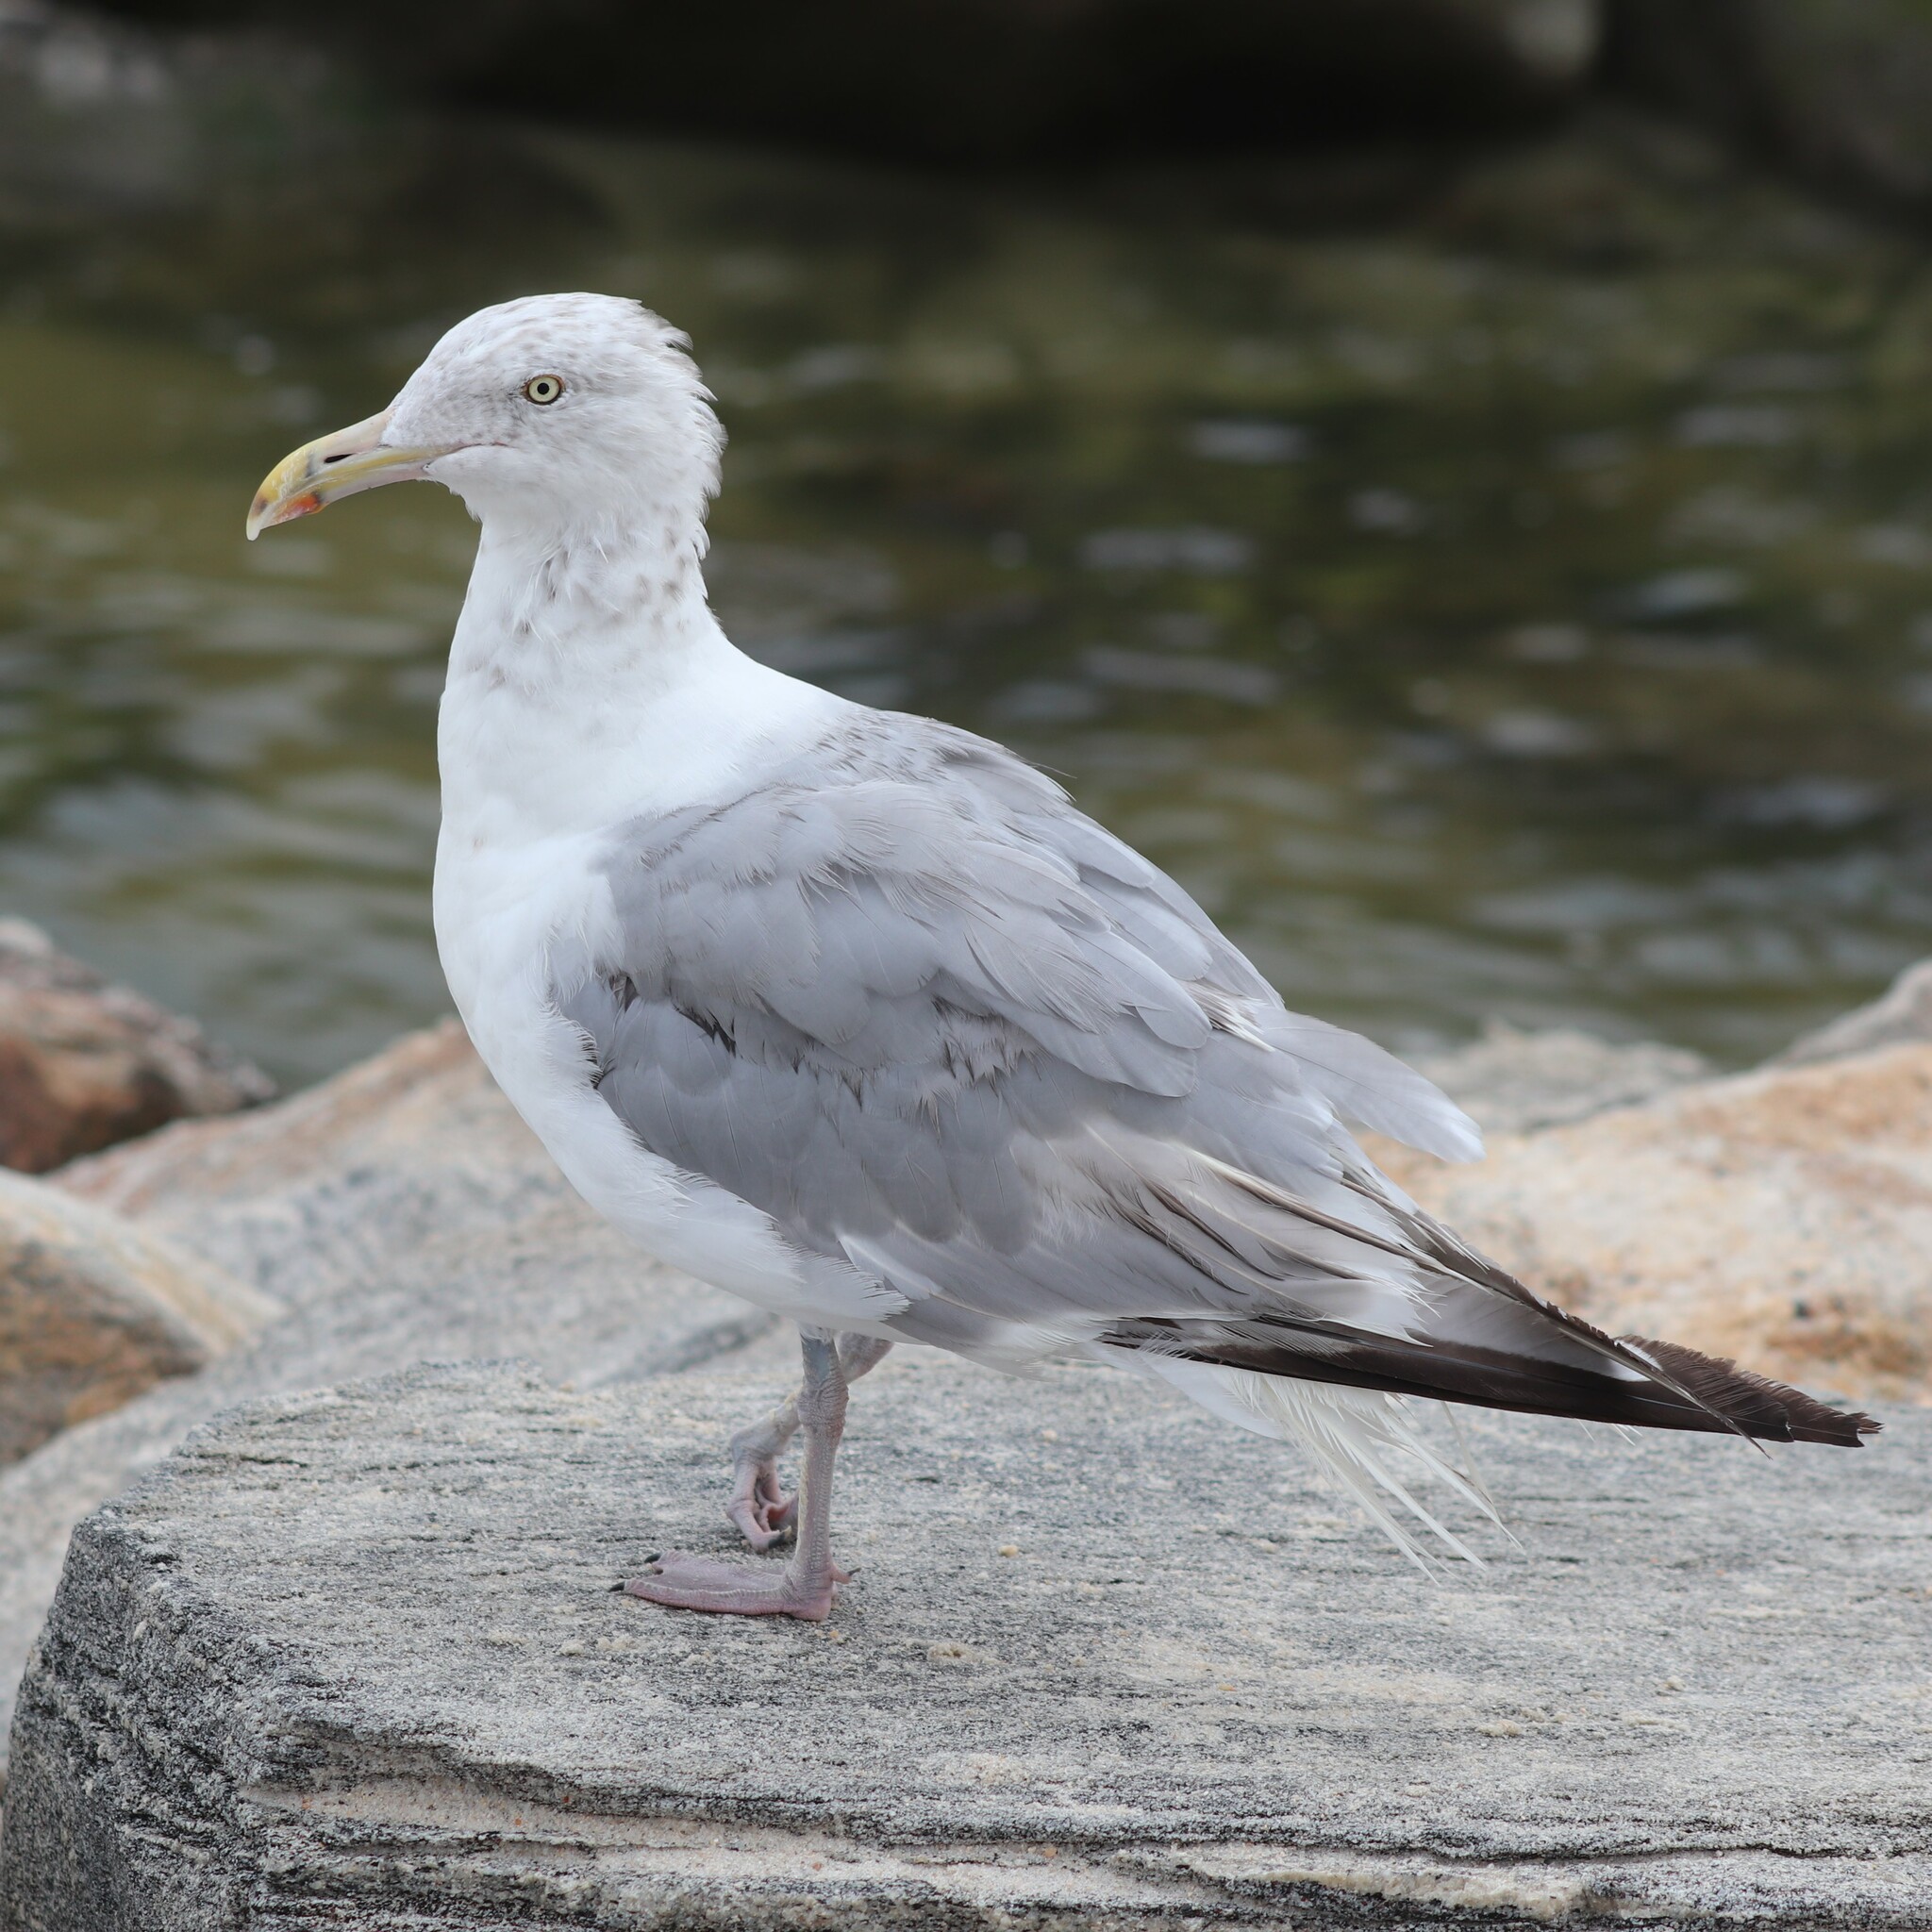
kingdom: Animalia
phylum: Chordata
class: Aves
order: Charadriiformes
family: Laridae
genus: Larus
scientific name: Larus argentatus
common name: Herring gull
